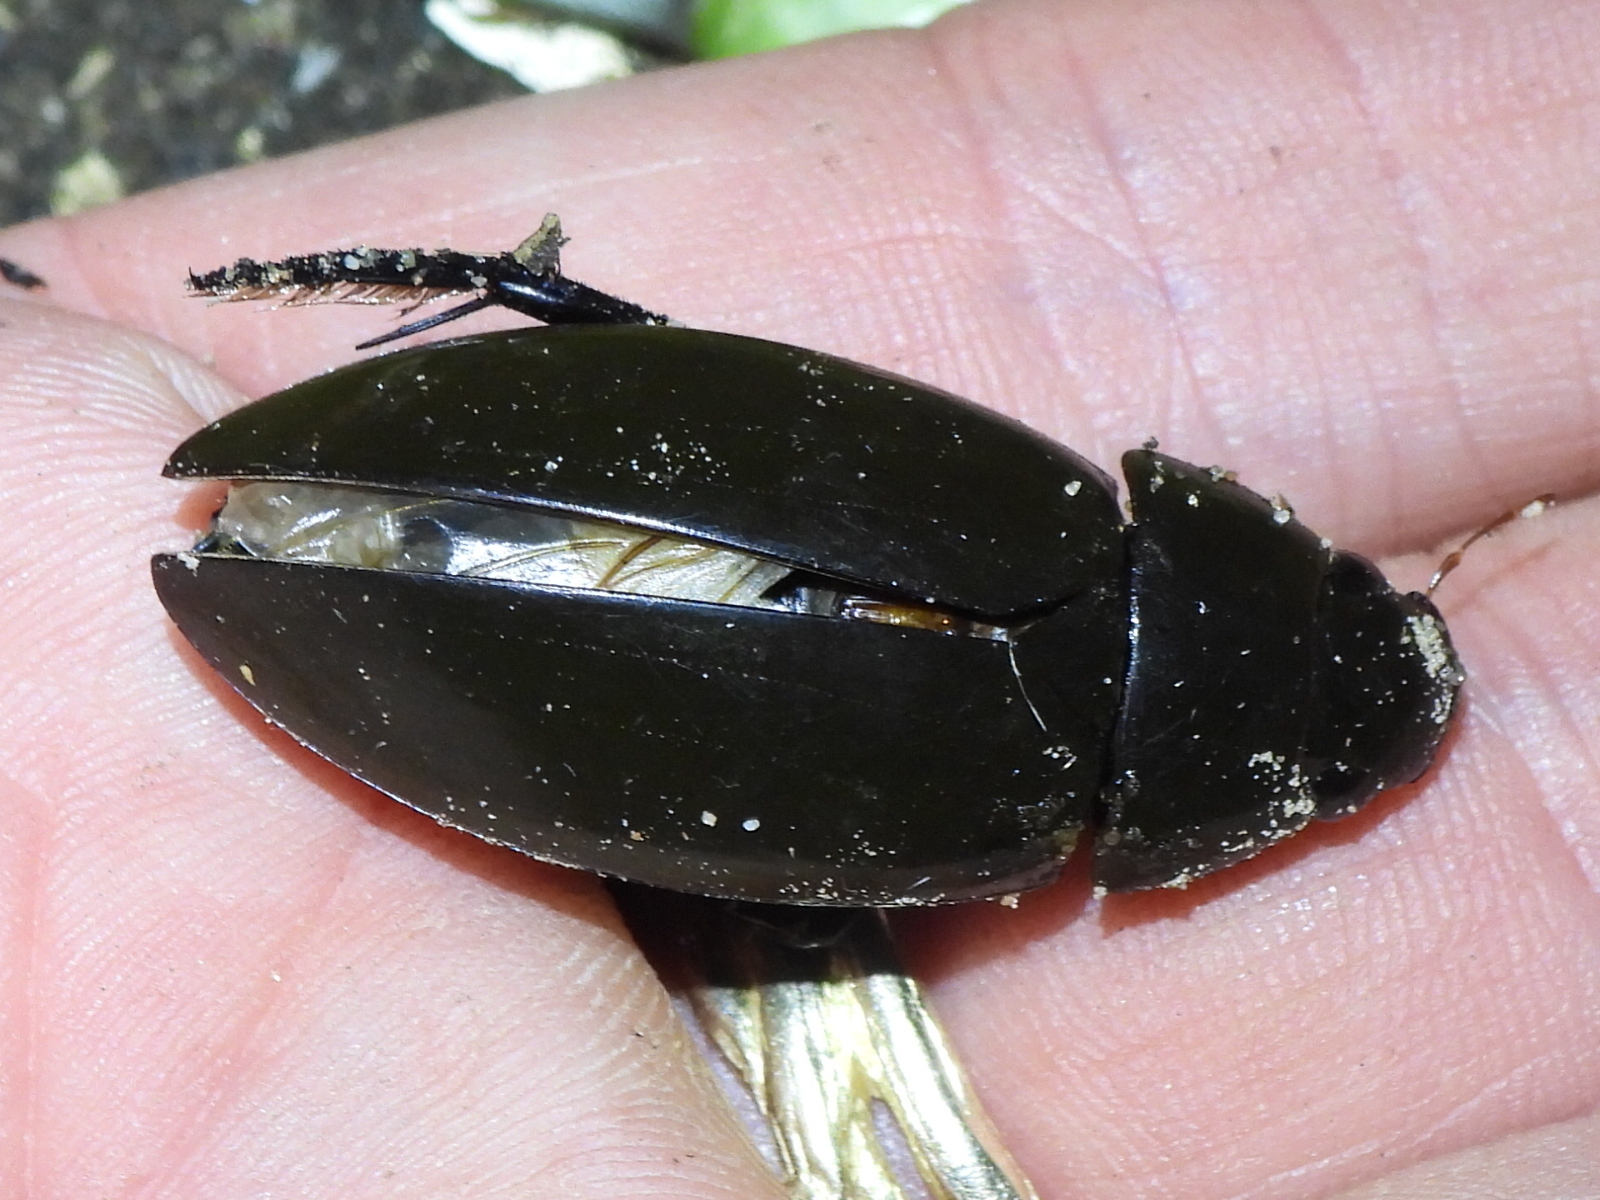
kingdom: Animalia
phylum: Arthropoda
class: Insecta
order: Coleoptera
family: Hydrophilidae
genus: Hydrophilus
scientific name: Hydrophilus triangularis
